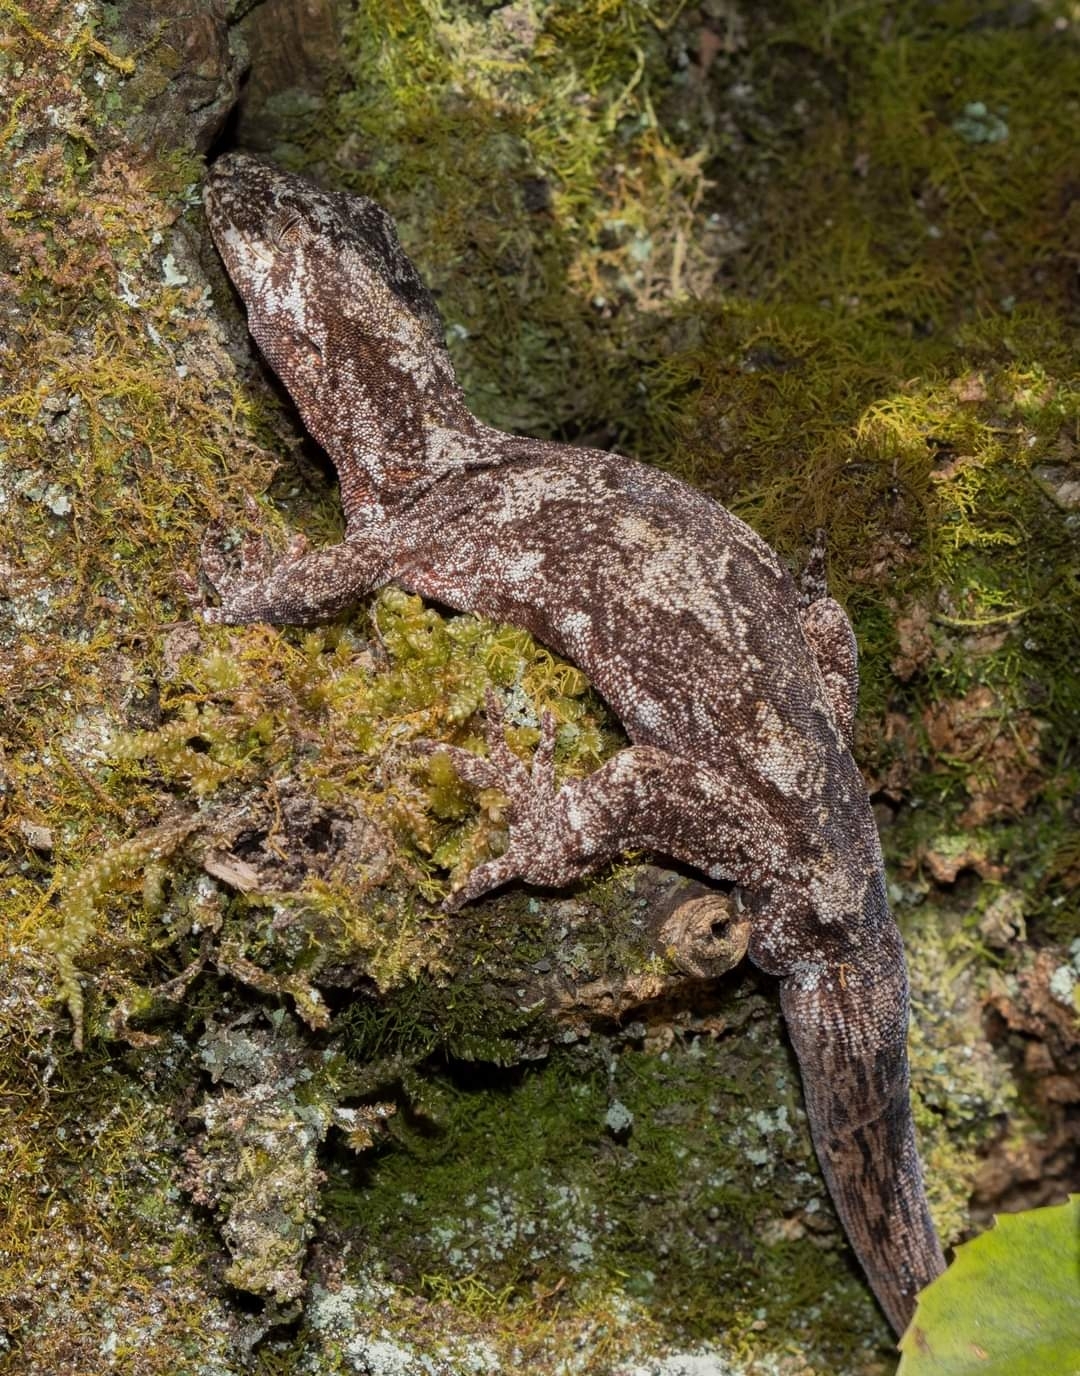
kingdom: Animalia
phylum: Chordata
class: Squamata
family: Diplodactylidae
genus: Mokopirirakau
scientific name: Mokopirirakau
